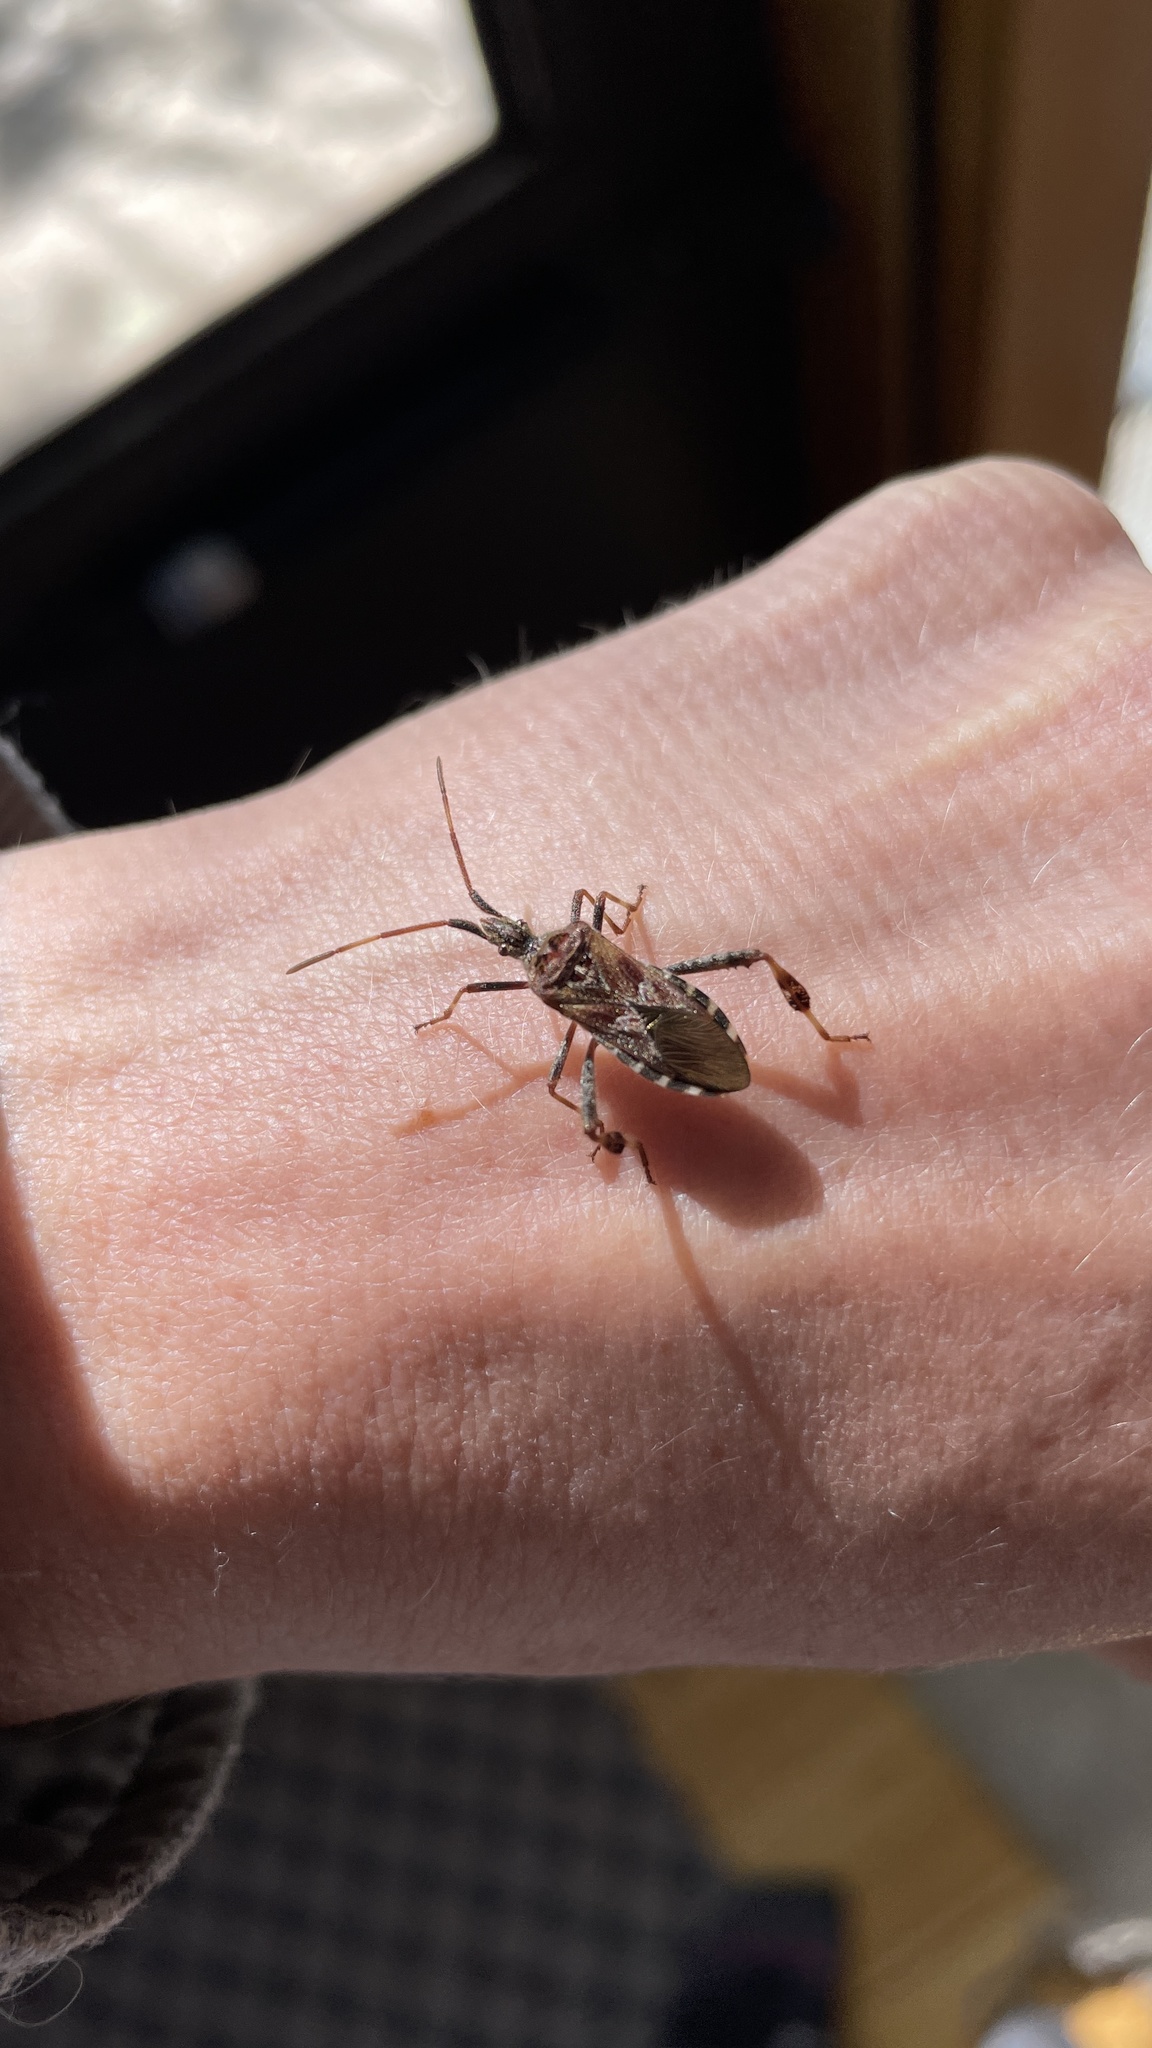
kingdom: Animalia
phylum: Arthropoda
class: Insecta
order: Hemiptera
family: Coreidae
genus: Leptoglossus
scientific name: Leptoglossus occidentalis
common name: Western conifer-seed bug
